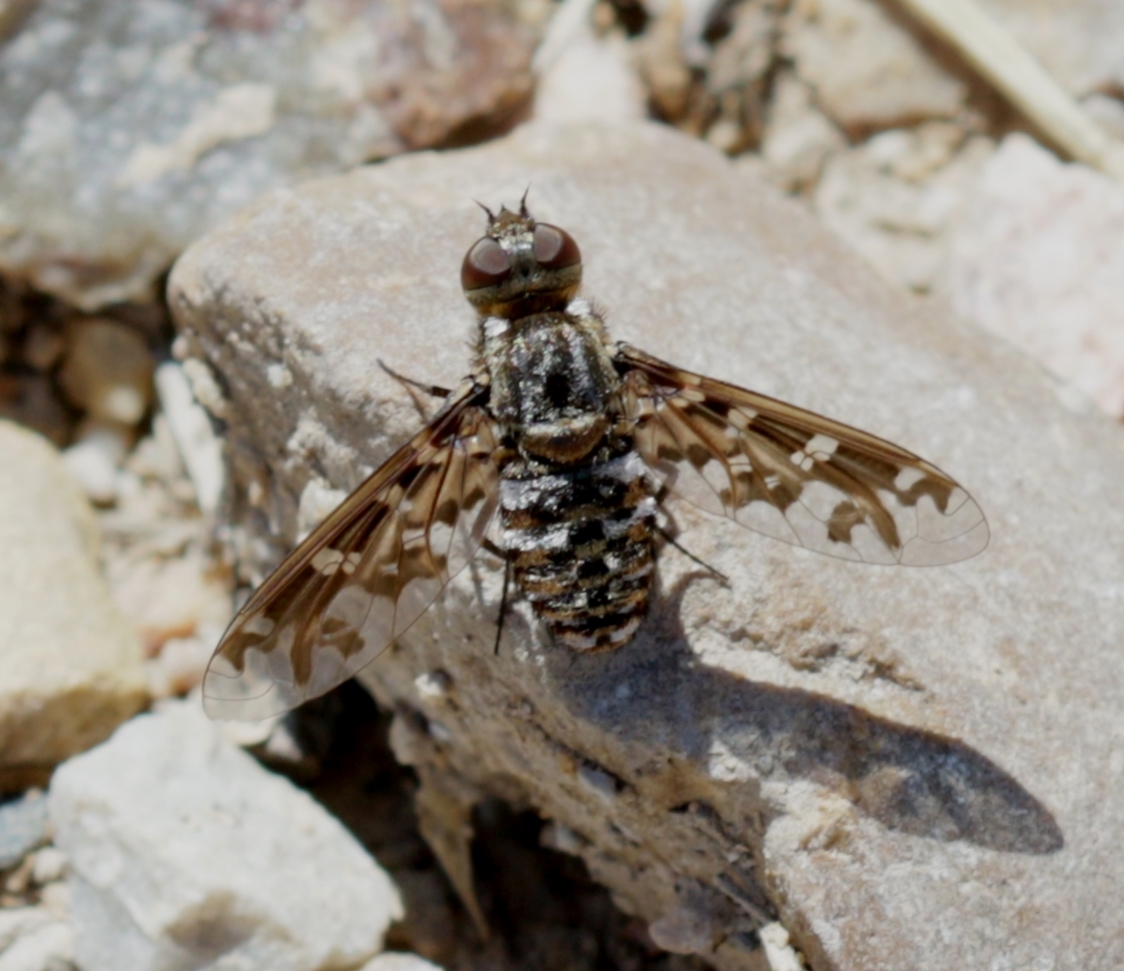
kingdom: Animalia
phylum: Arthropoda
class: Insecta
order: Diptera
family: Bombyliidae
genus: Exoprosopa
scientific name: Exoprosopa italica
